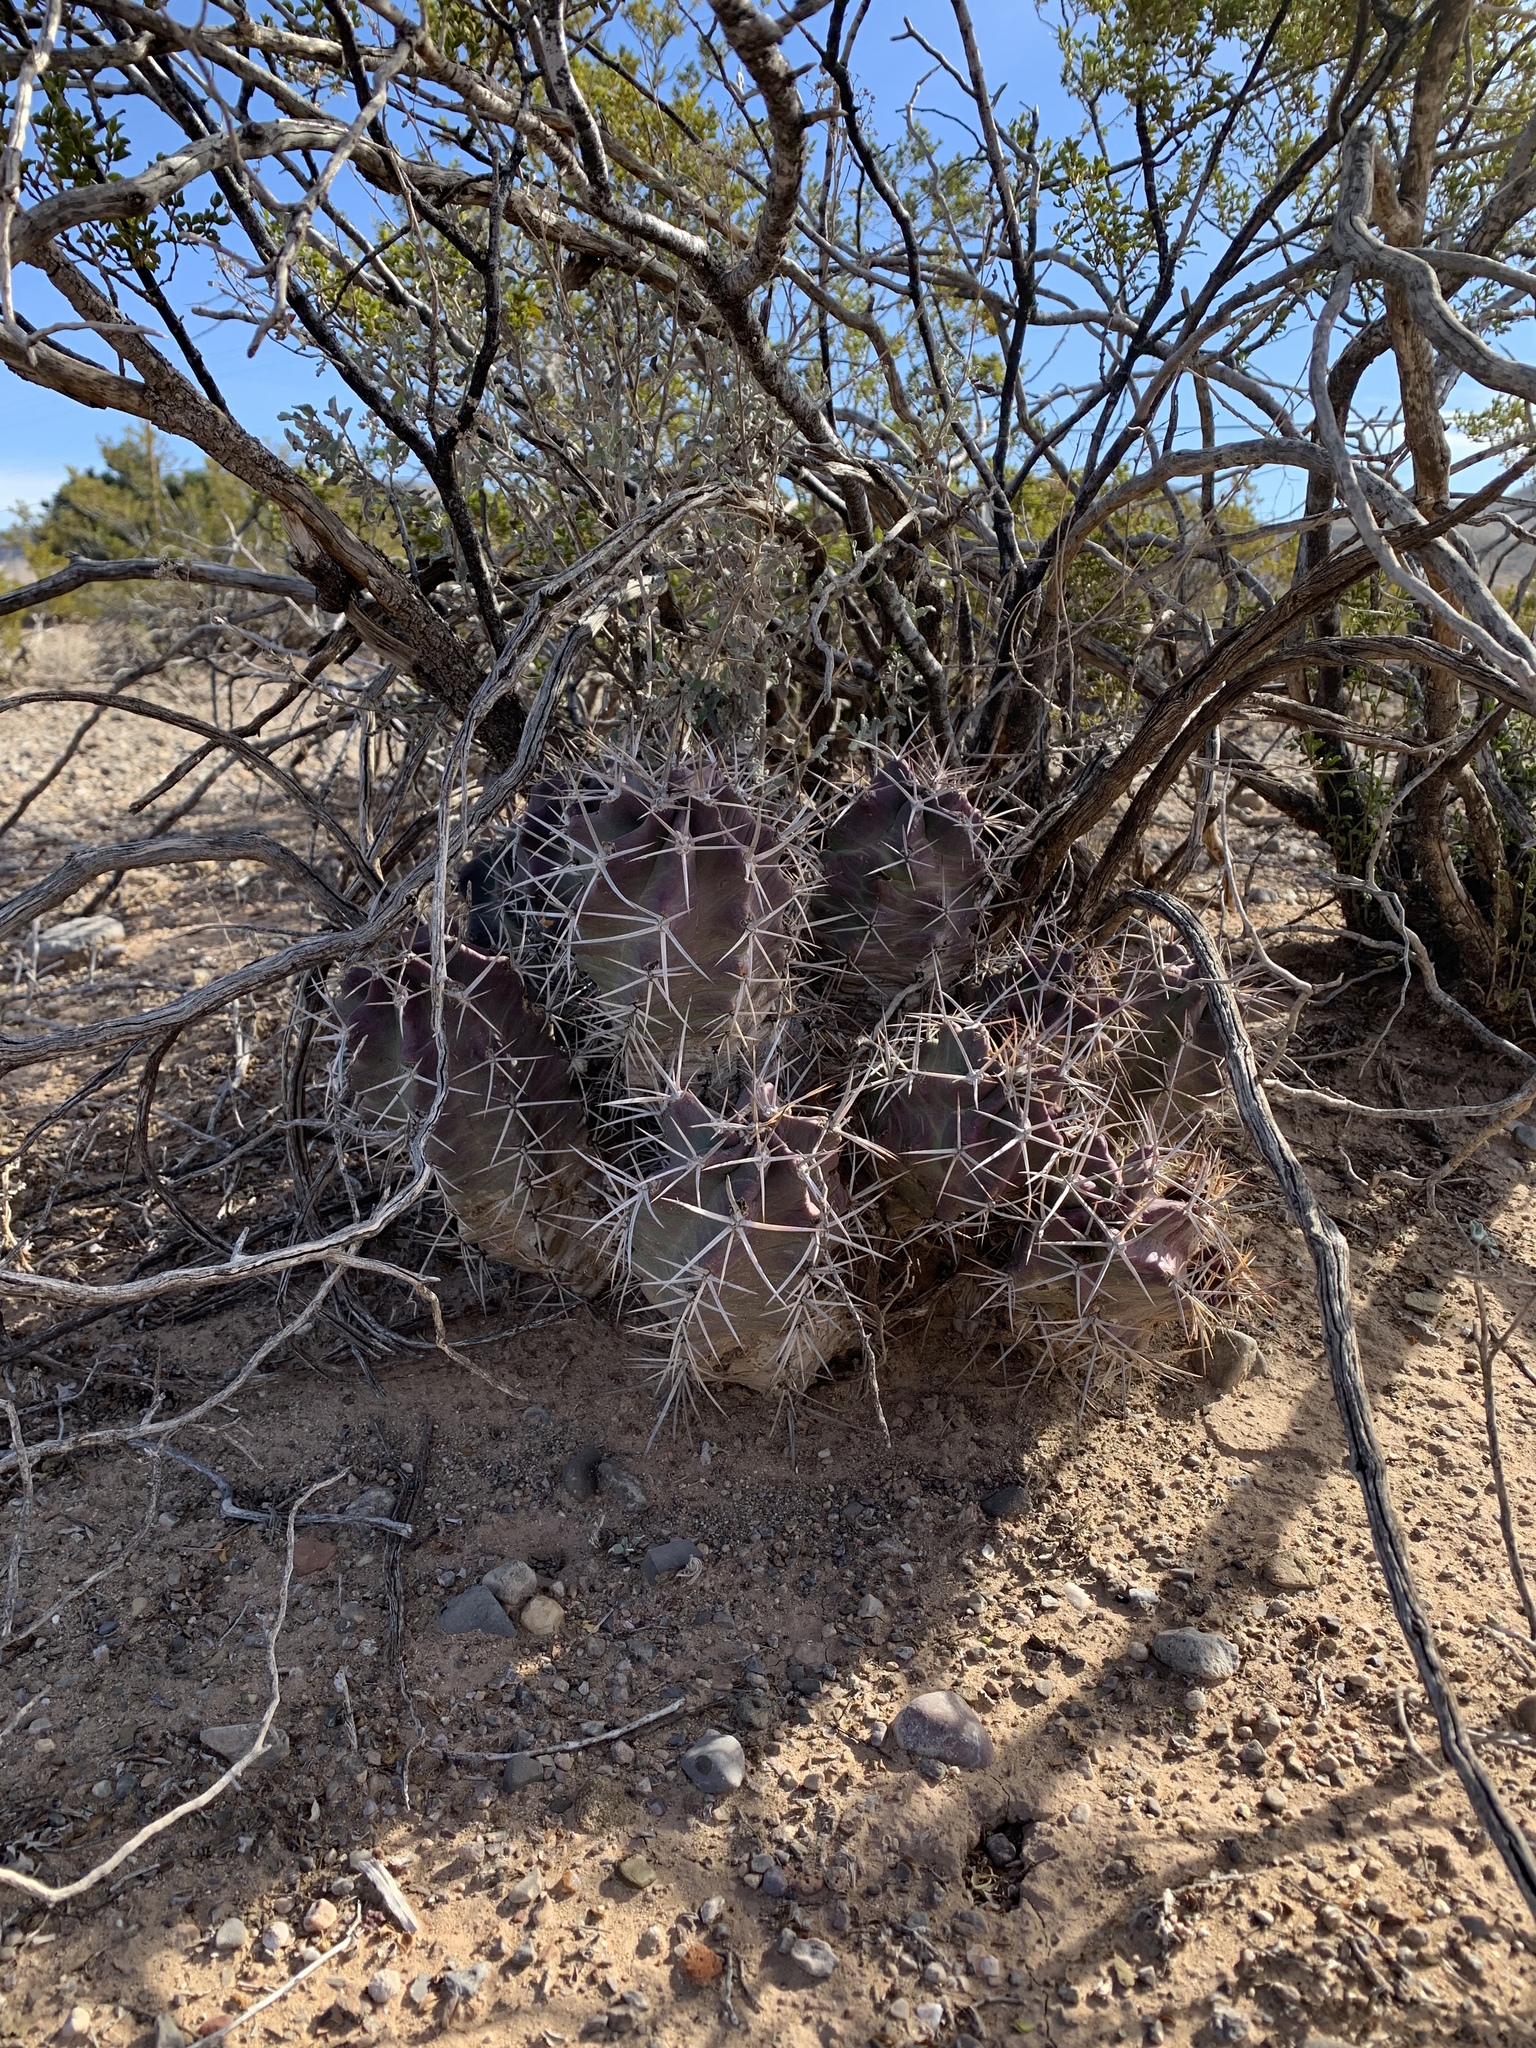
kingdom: Plantae
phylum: Tracheophyta
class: Magnoliopsida
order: Caryophyllales
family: Cactaceae
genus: Echinocereus
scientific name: Echinocereus triglochidiatus
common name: Claretcup hedgehog
